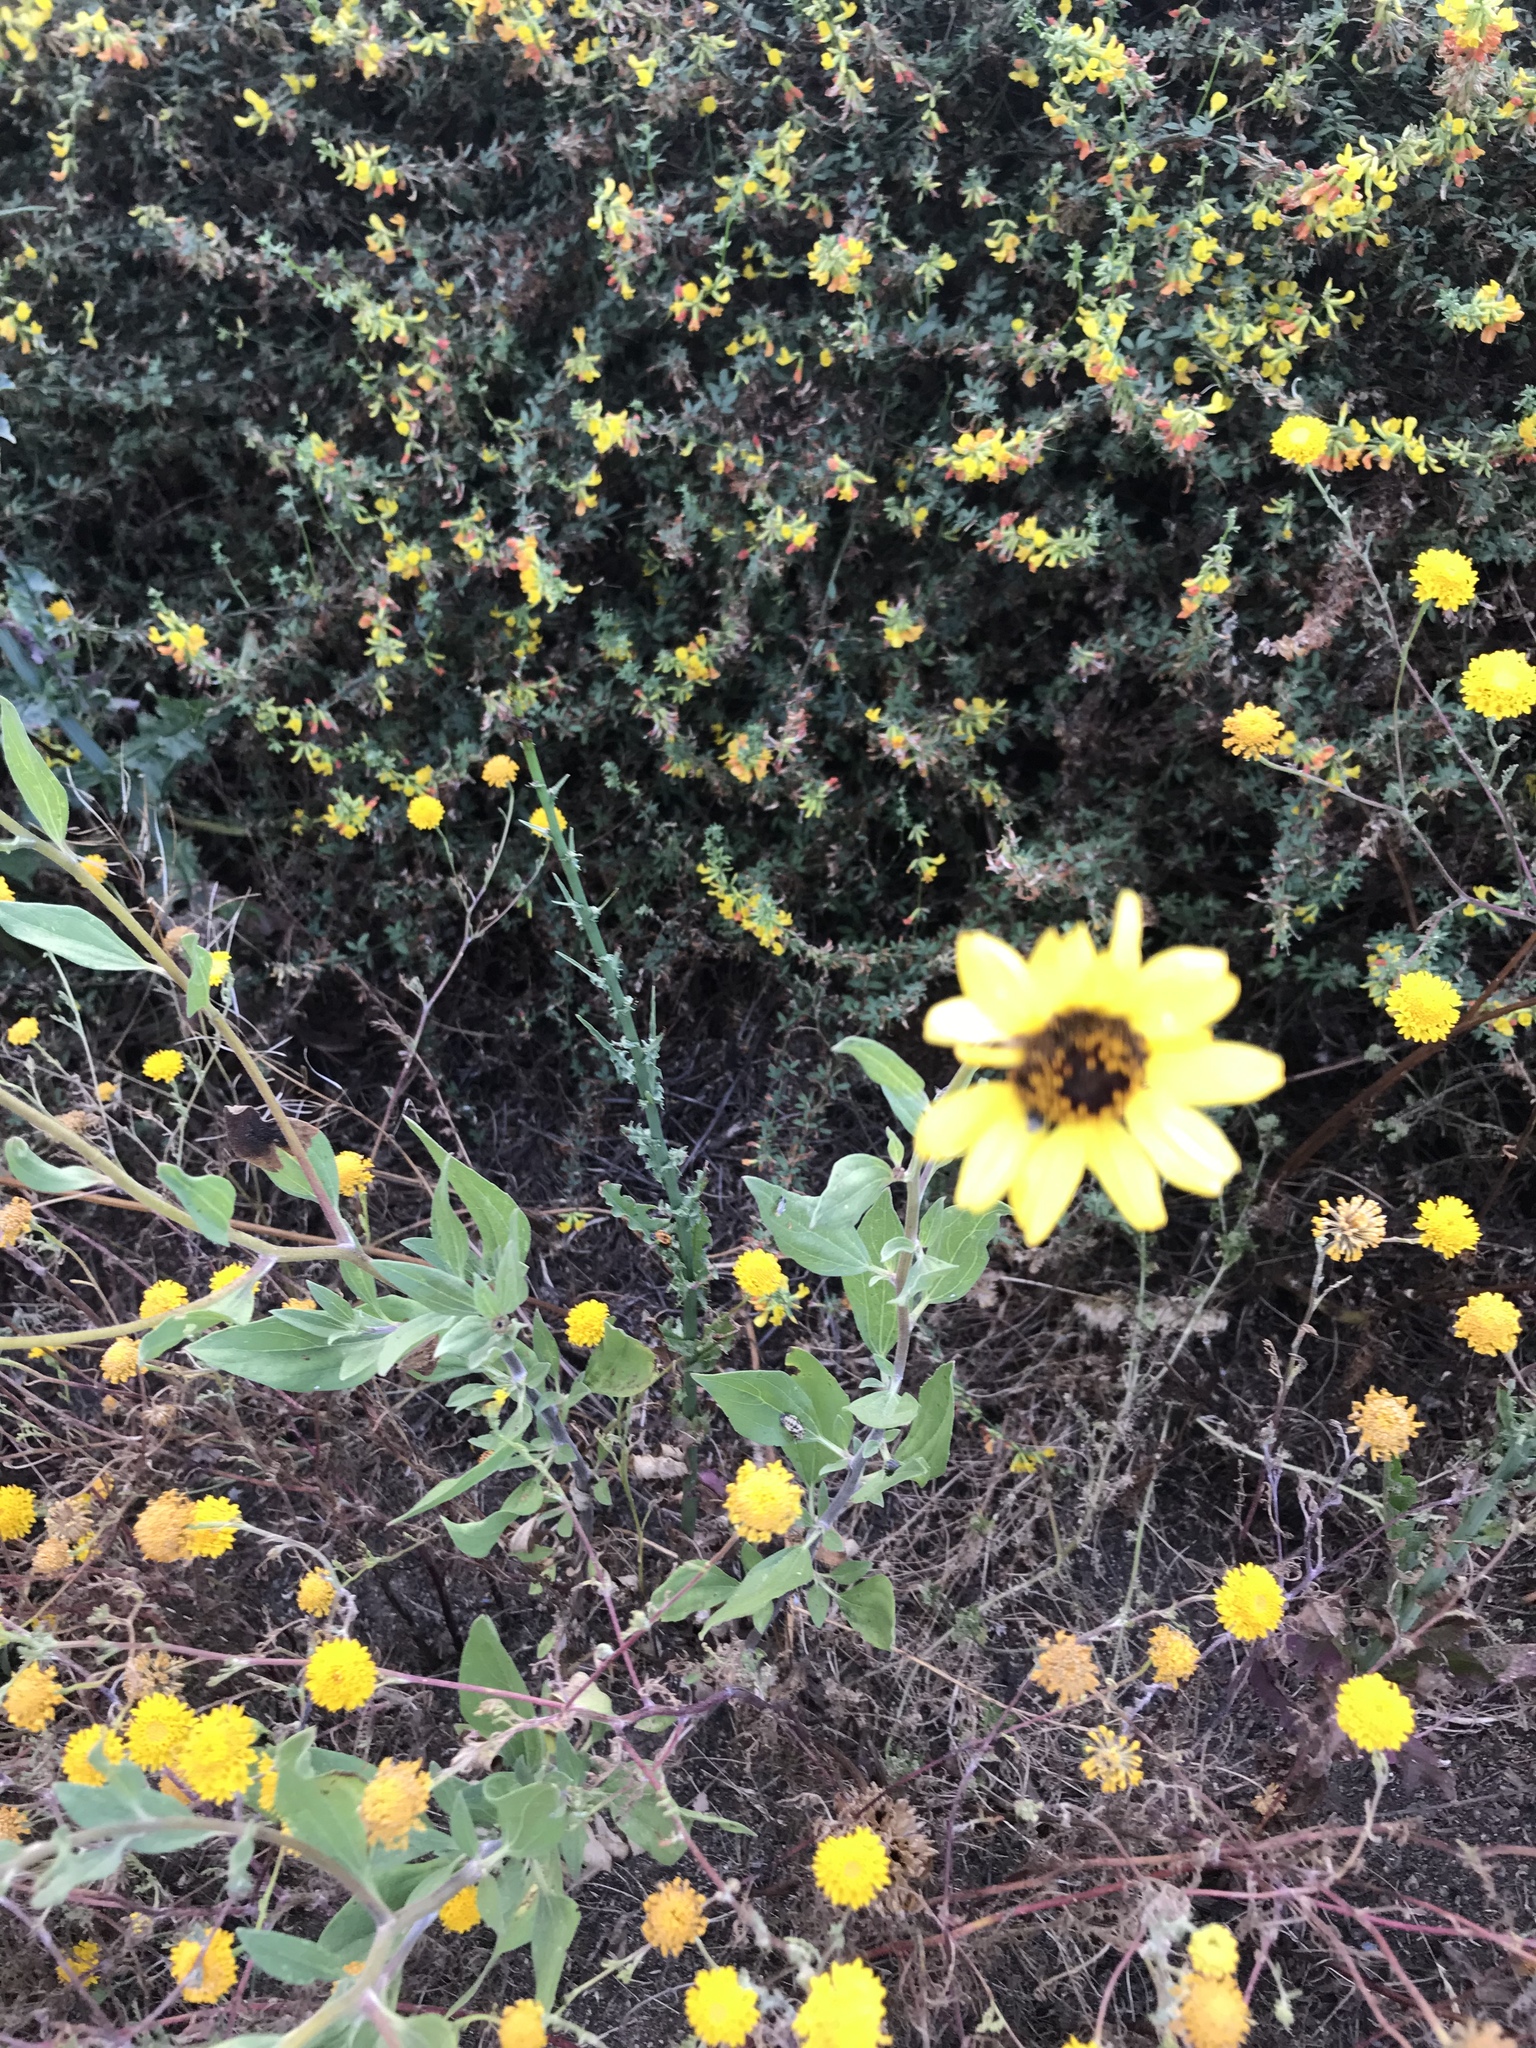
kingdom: Plantae
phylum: Tracheophyta
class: Magnoliopsida
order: Asterales
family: Asteraceae
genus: Encelia
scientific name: Encelia californica
